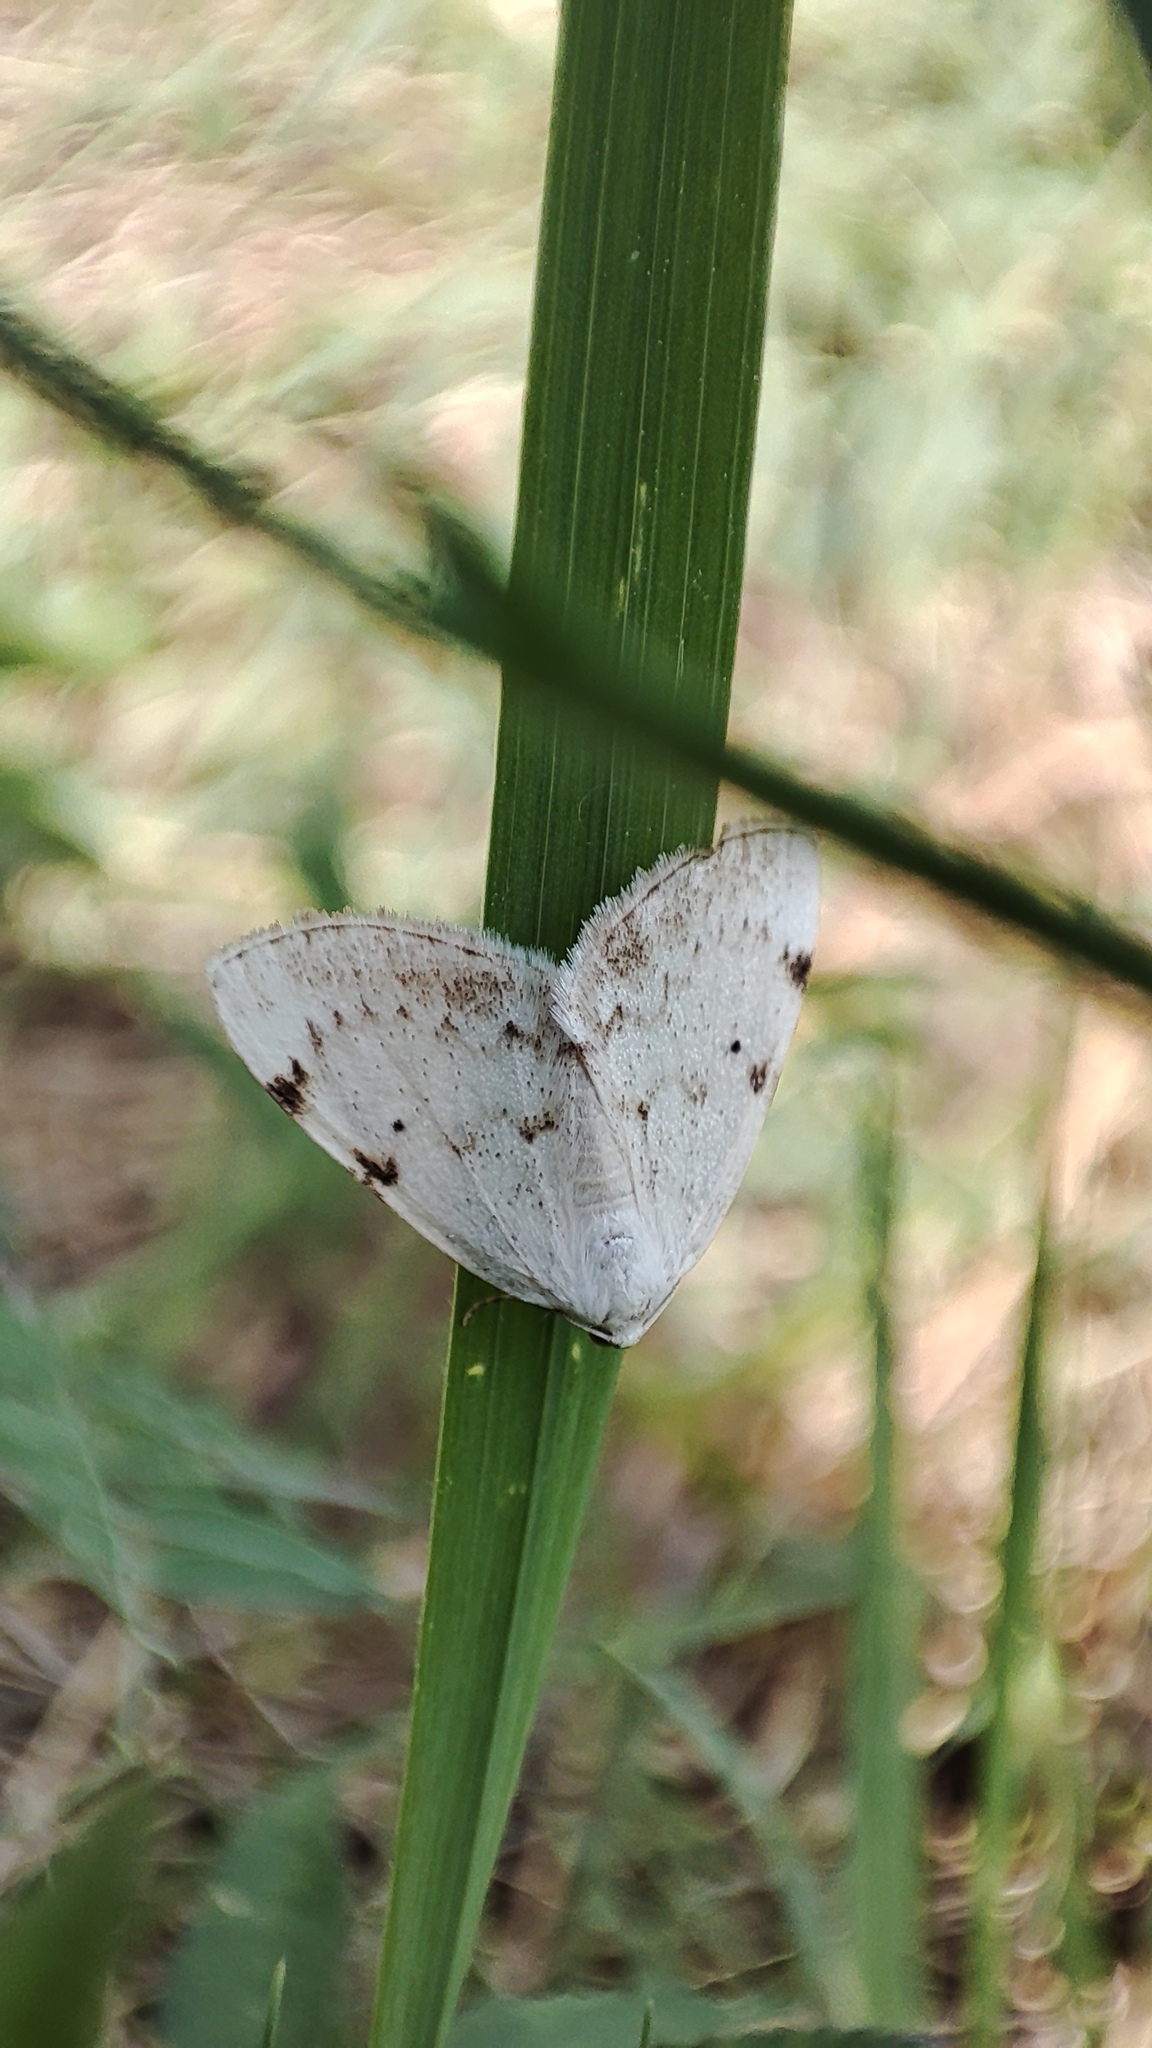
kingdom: Animalia
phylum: Arthropoda
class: Insecta
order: Lepidoptera
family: Geometridae
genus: Lomographa
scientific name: Lomographa bimaculata
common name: White-pinion spotted
